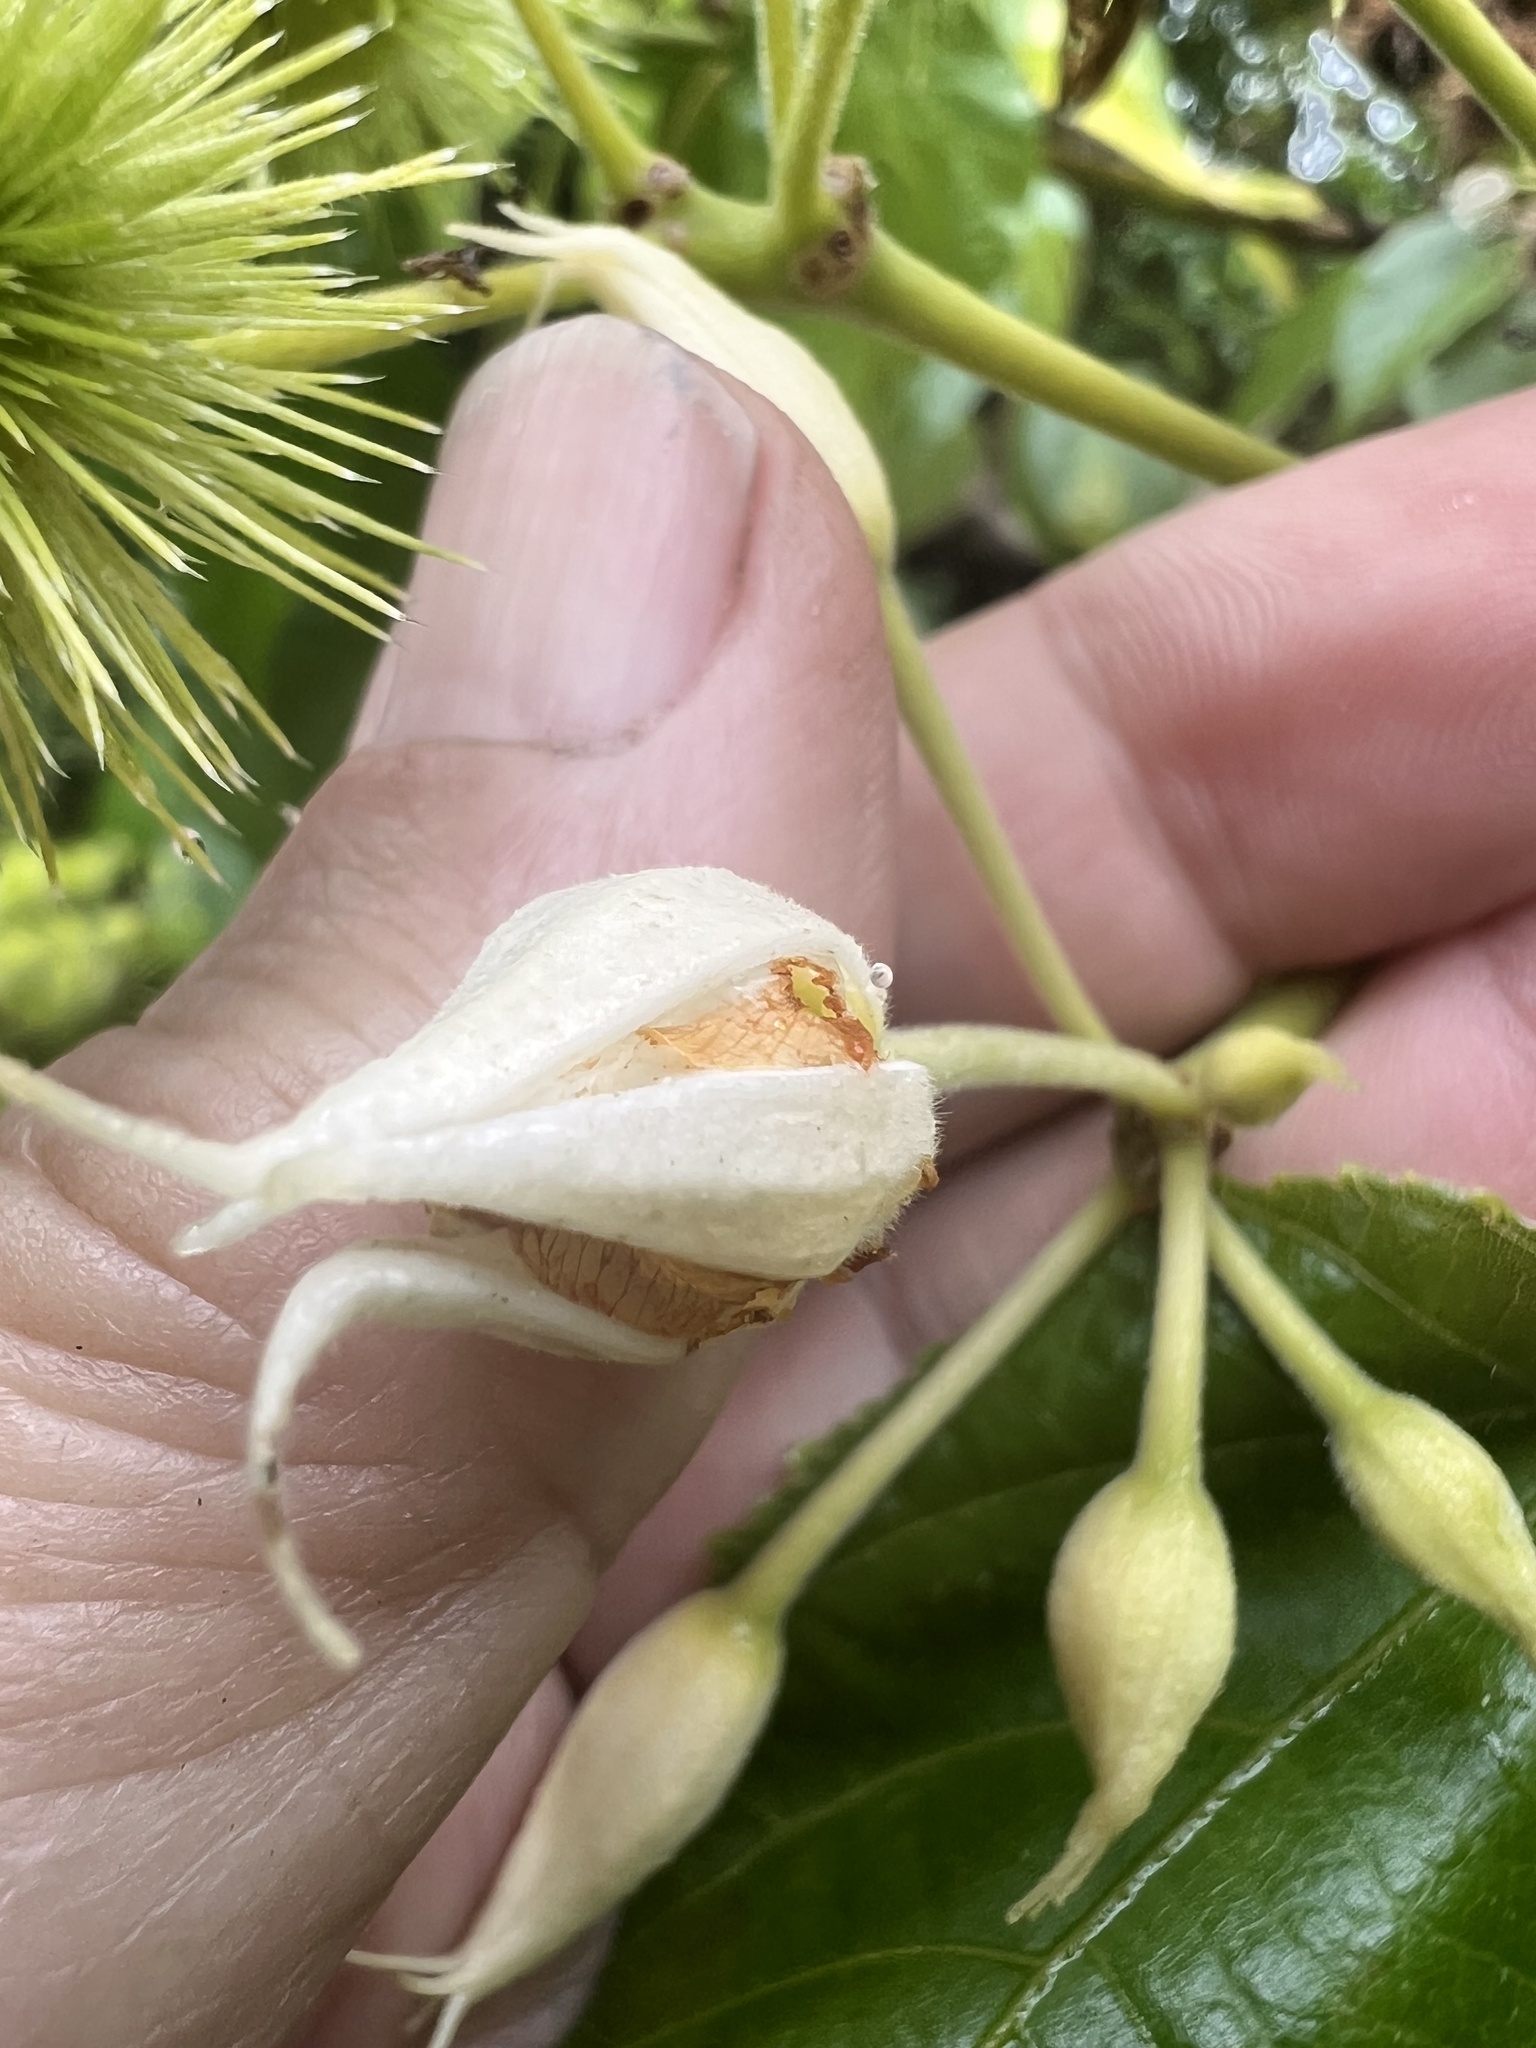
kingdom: Plantae
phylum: Tracheophyta
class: Magnoliopsida
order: Malvales
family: Malvaceae
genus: Entelea
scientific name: Entelea arborescens
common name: New zealand-mulberry
